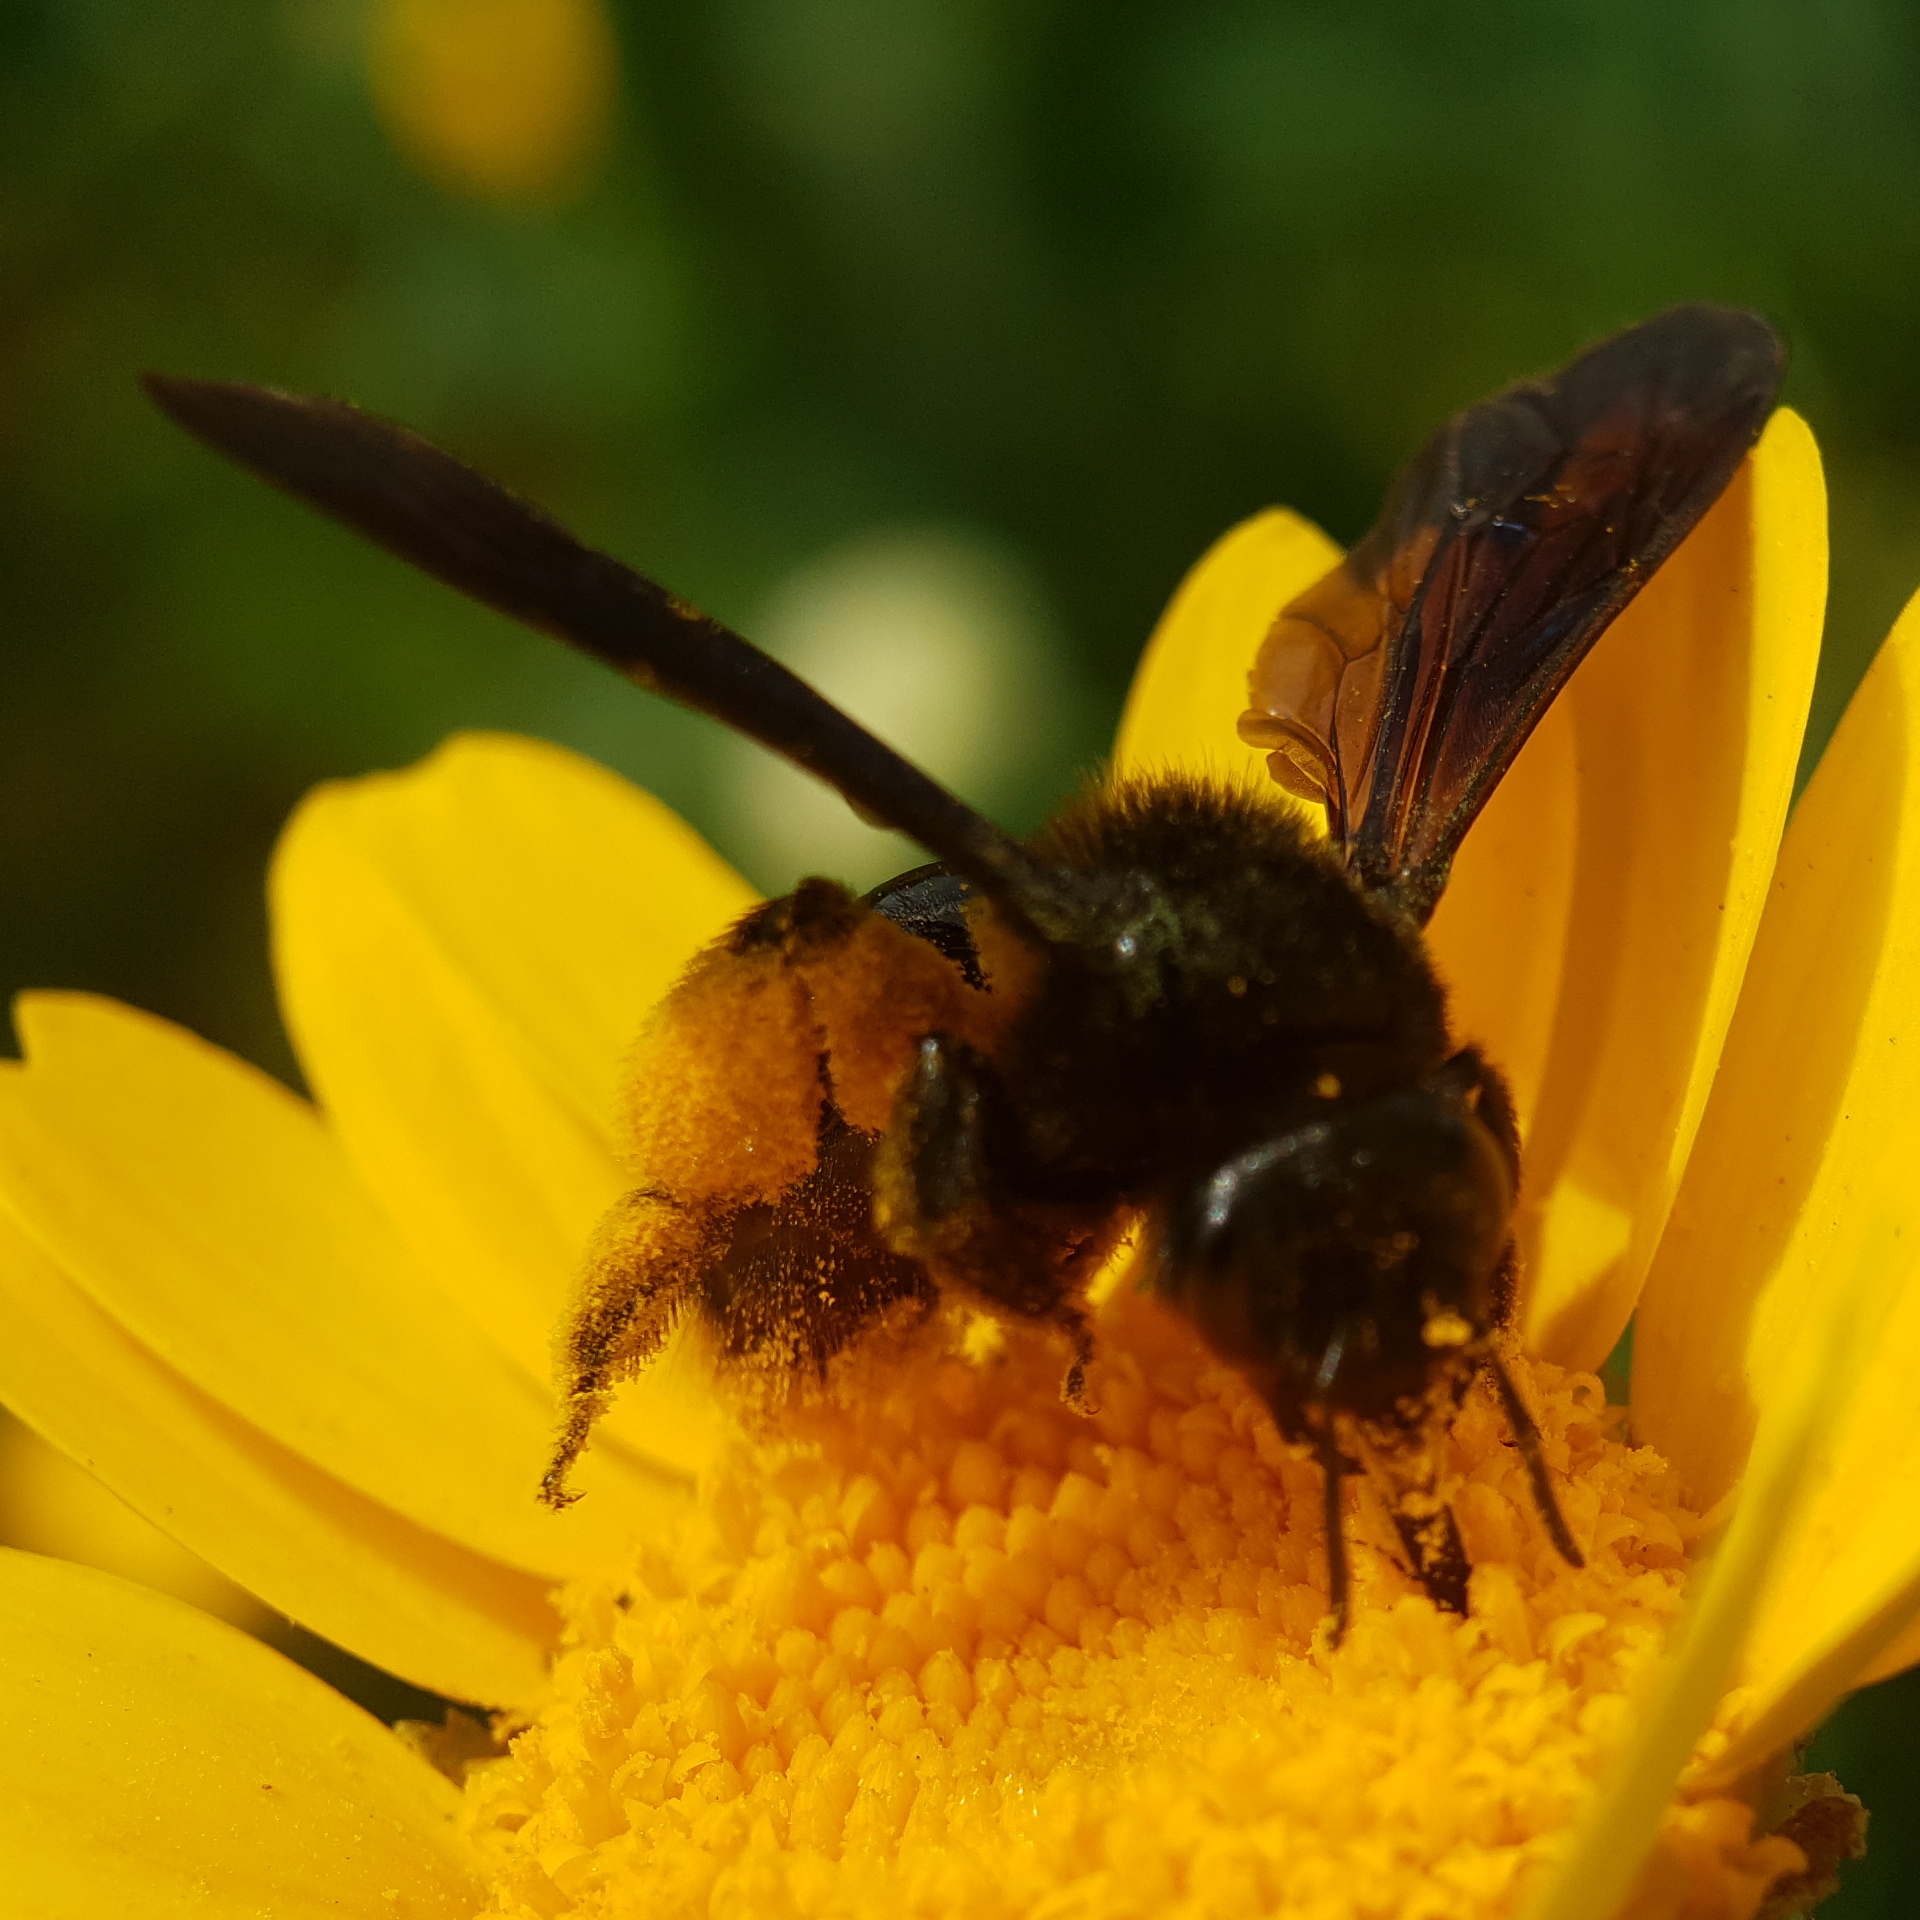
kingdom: Animalia
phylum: Arthropoda
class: Insecta
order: Hymenoptera
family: Andrenidae
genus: Andrena
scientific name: Andrena pyropygia
